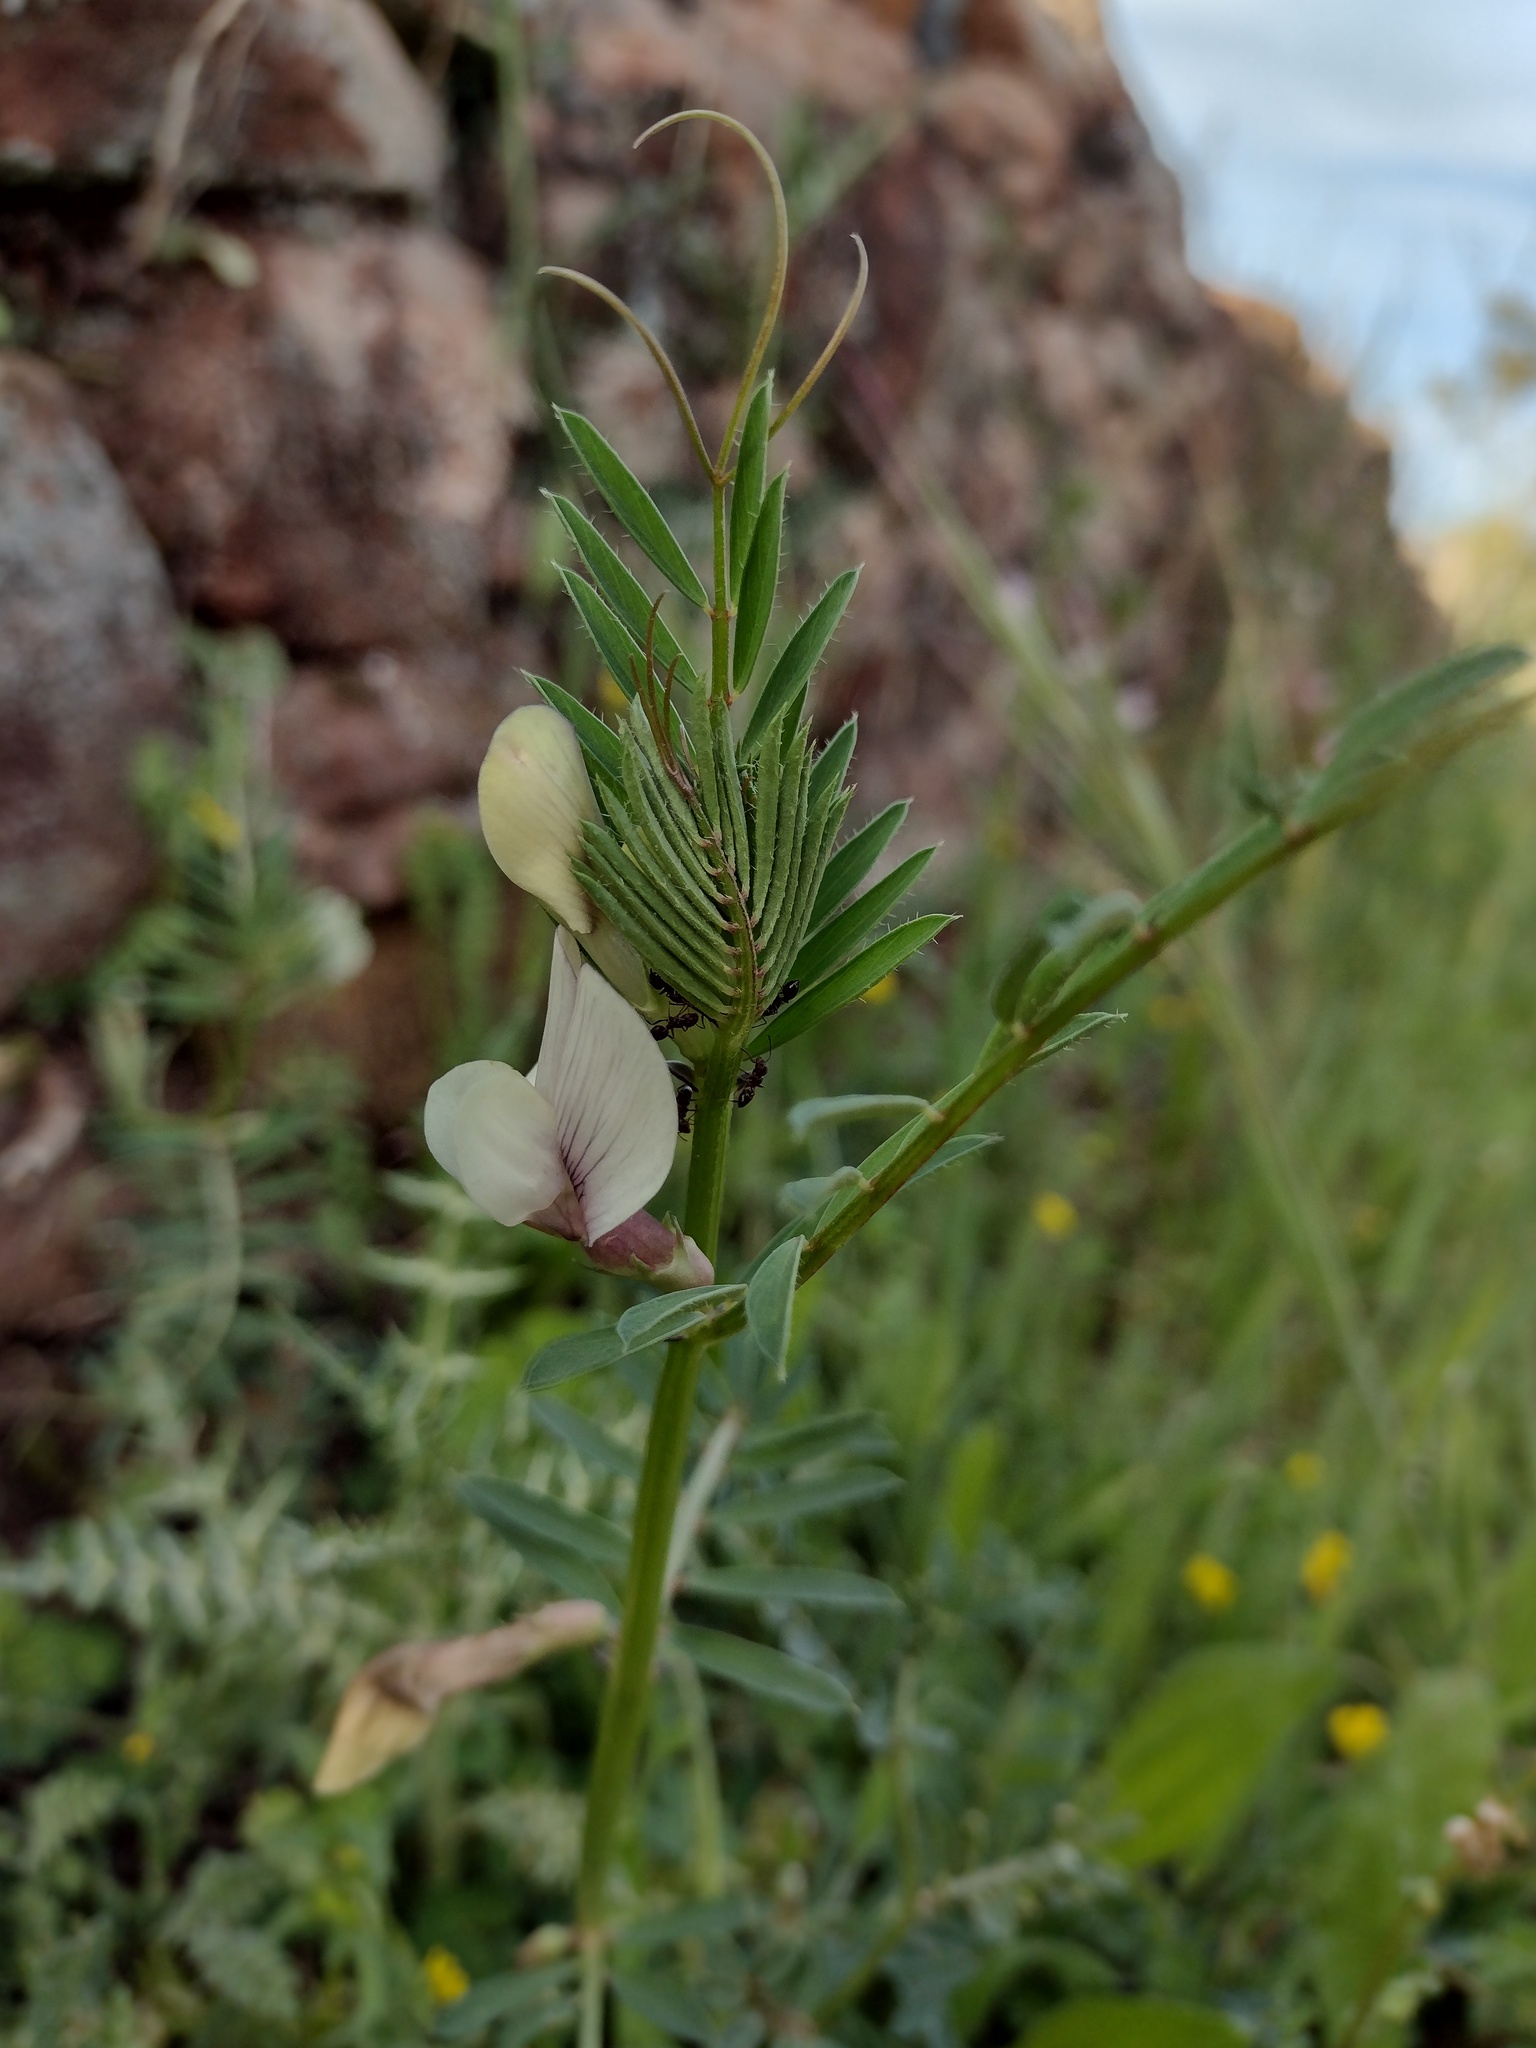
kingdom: Plantae
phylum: Tracheophyta
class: Magnoliopsida
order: Fabales
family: Fabaceae
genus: Vicia
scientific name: Vicia lutea
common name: Smooth yellow vetch
